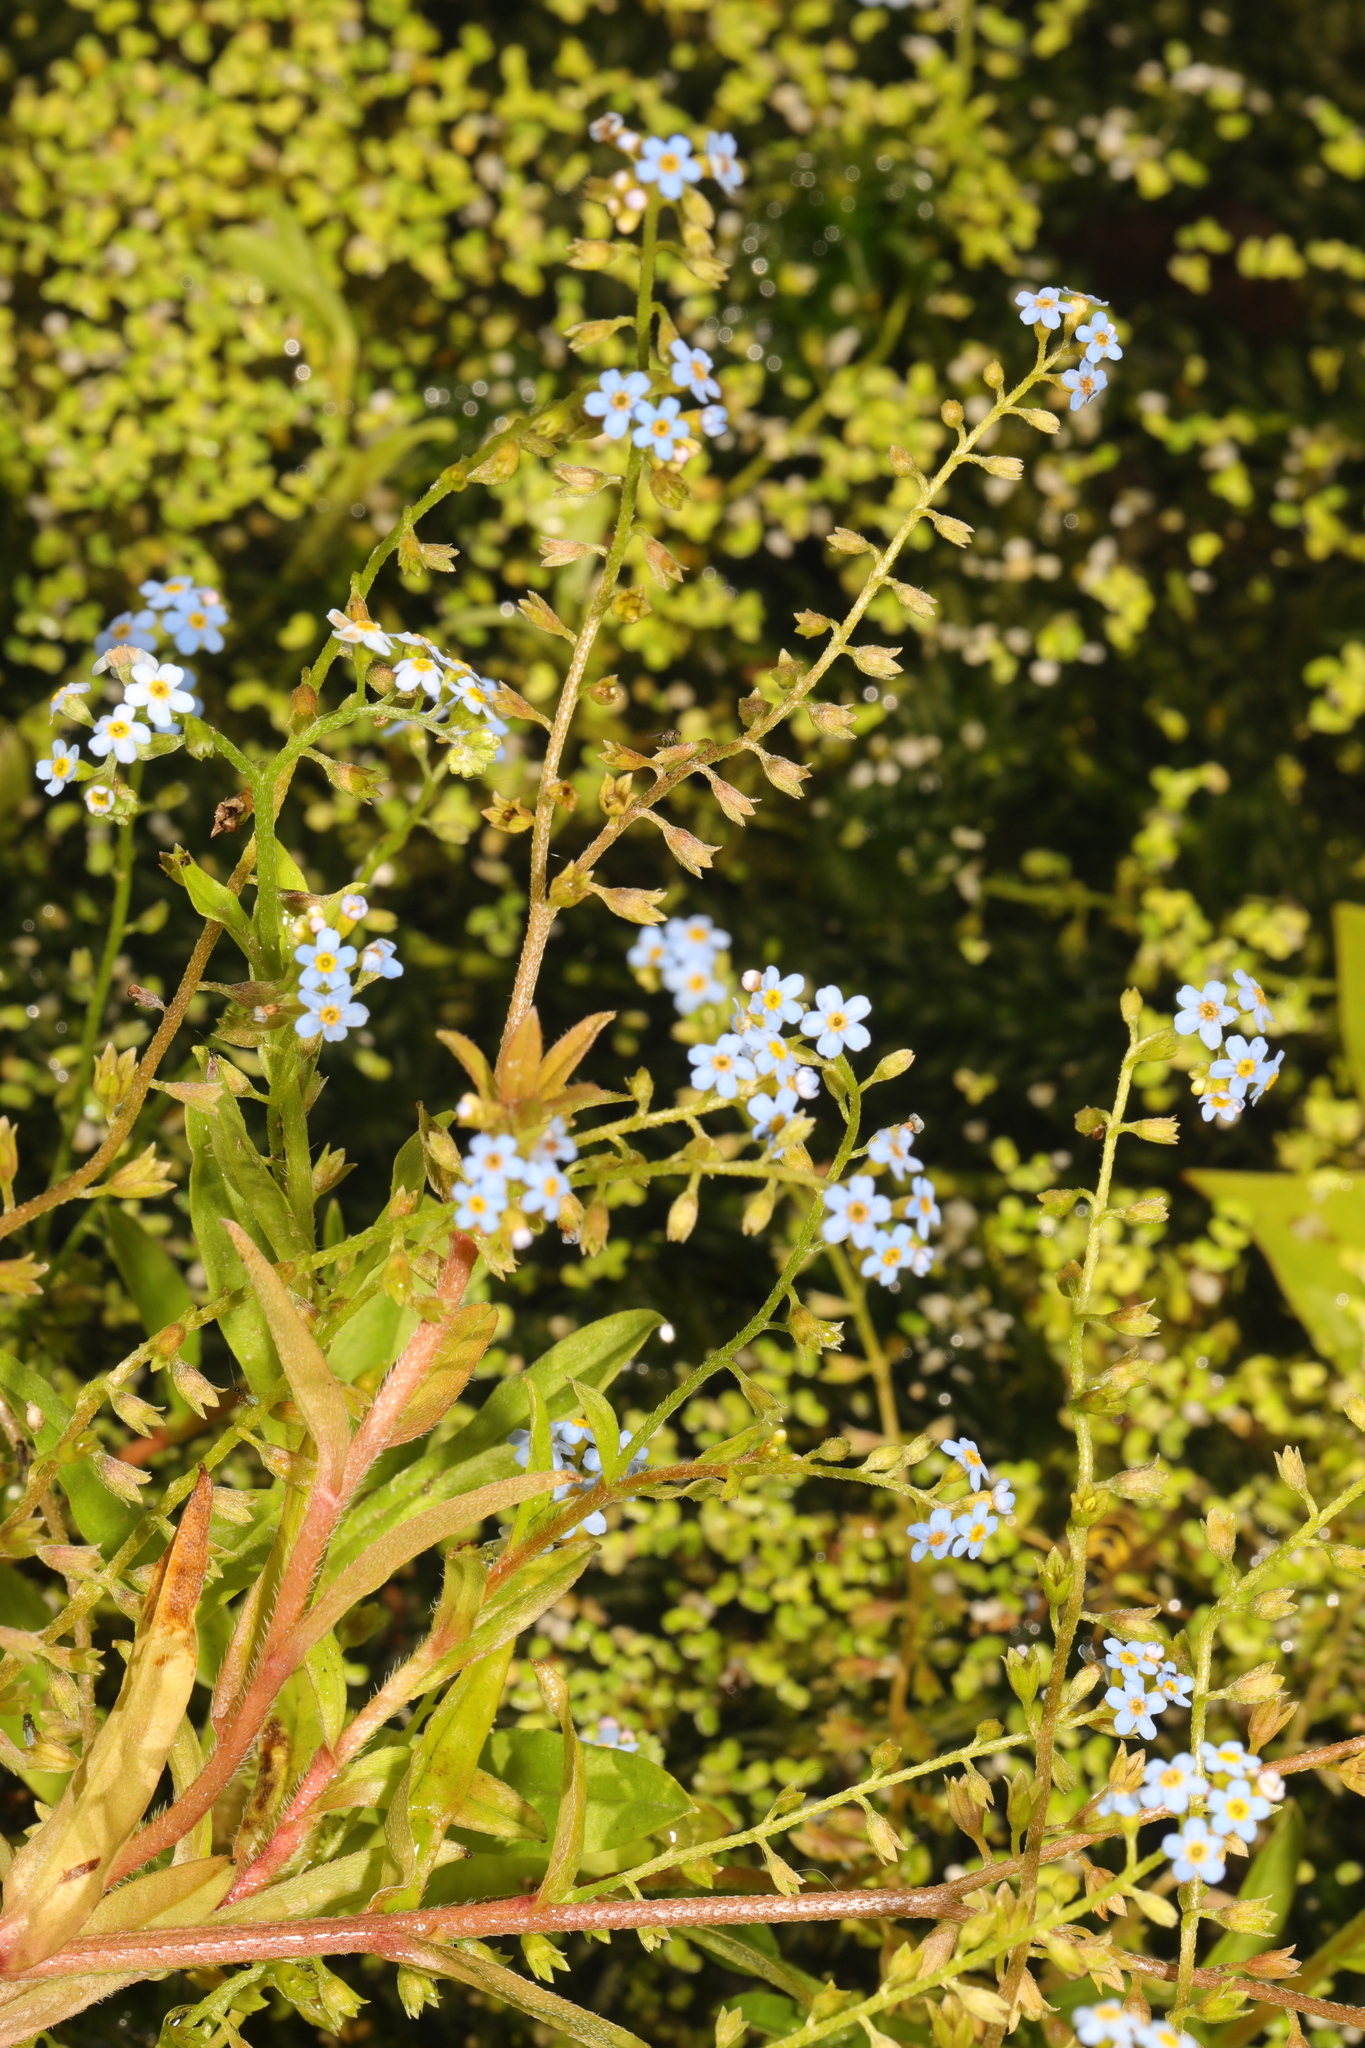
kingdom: Plantae
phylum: Tracheophyta
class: Magnoliopsida
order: Boraginales
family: Boraginaceae
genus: Myosotis
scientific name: Myosotis scorpioides
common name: Water forget-me-not
